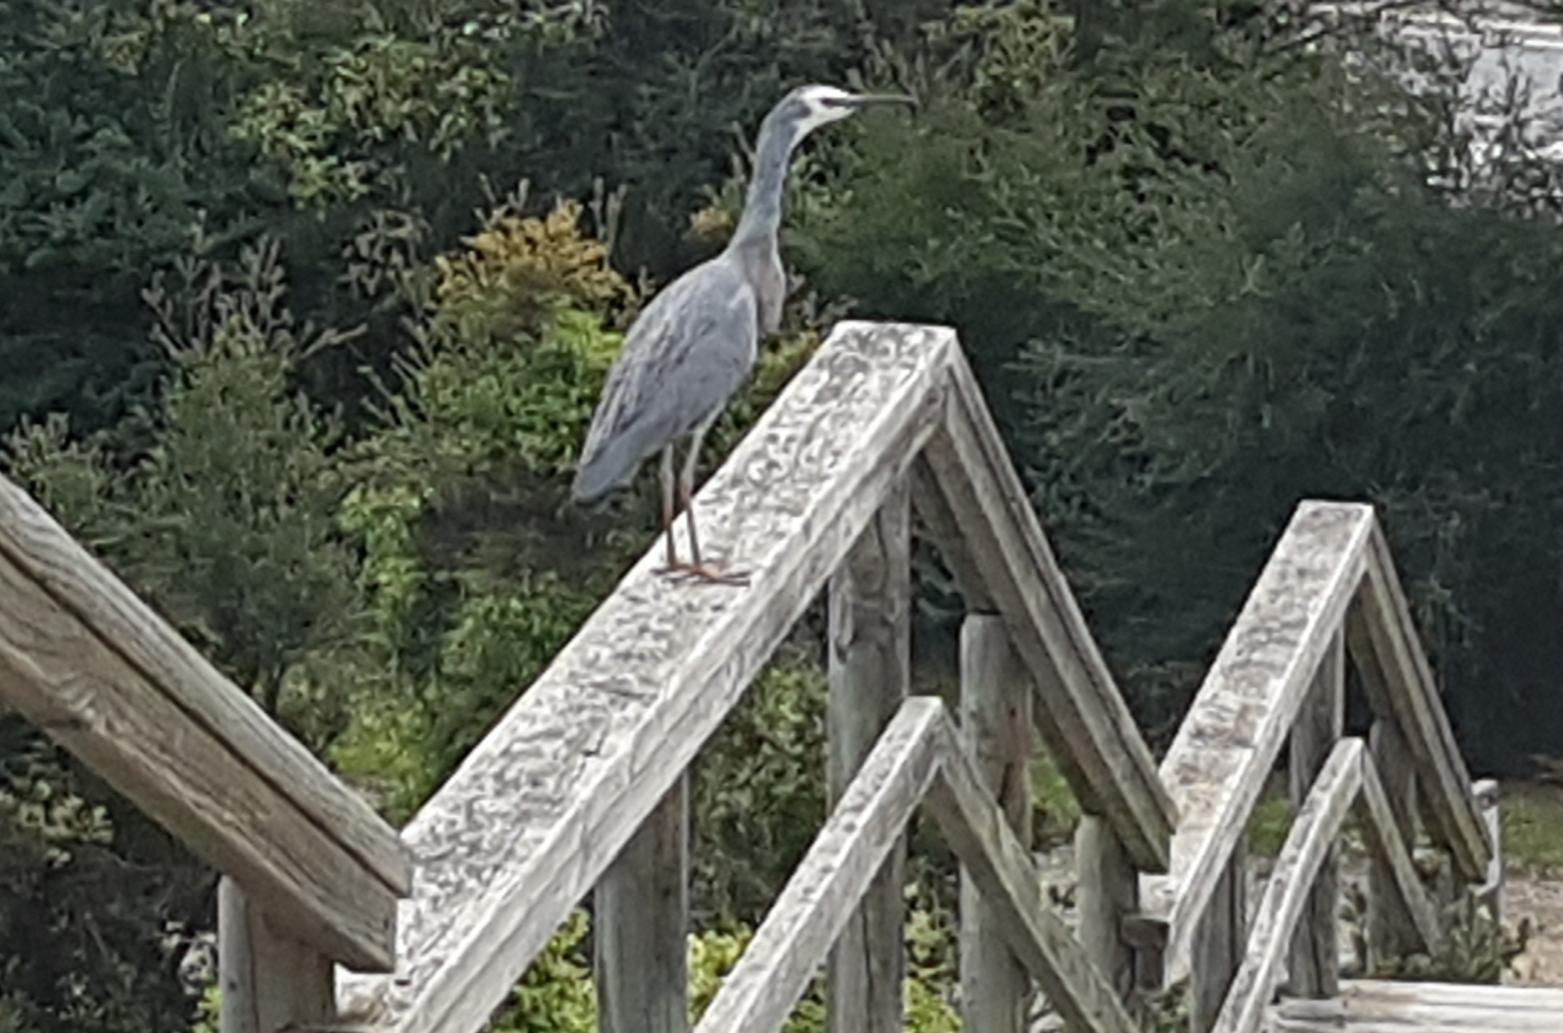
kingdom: Animalia
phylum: Chordata
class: Aves
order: Pelecaniformes
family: Ardeidae
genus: Egretta
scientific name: Egretta novaehollandiae
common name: White-faced heron
